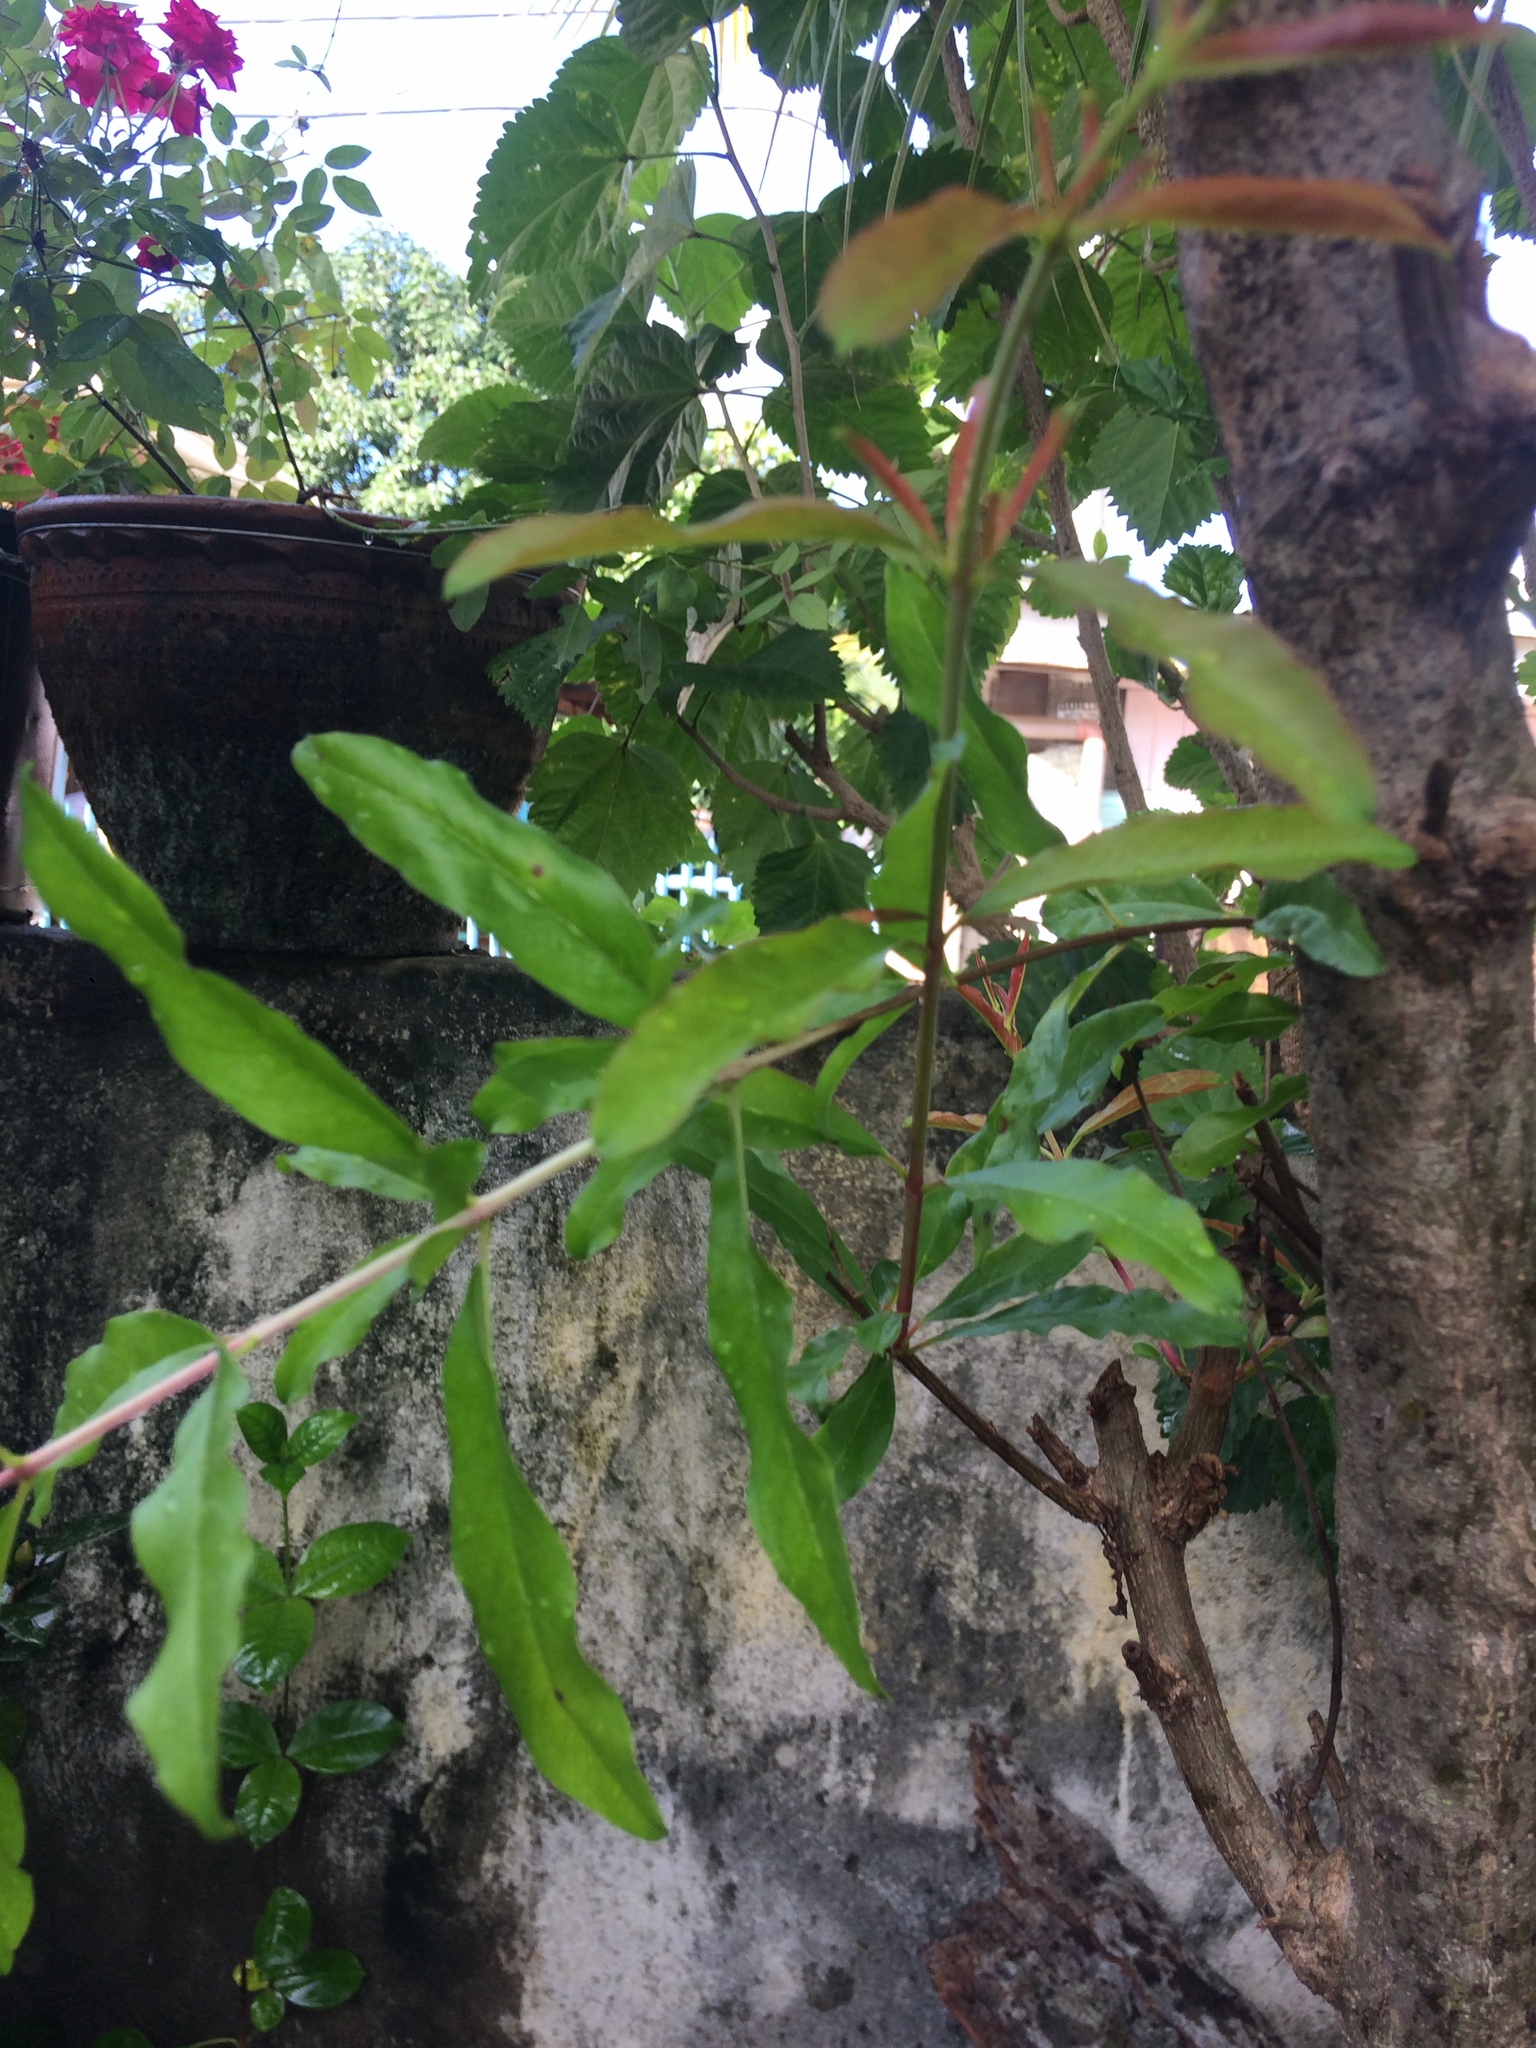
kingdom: Plantae
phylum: Tracheophyta
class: Magnoliopsida
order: Myrtales
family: Lythraceae
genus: Punica
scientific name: Punica granatum
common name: Pomegranate
